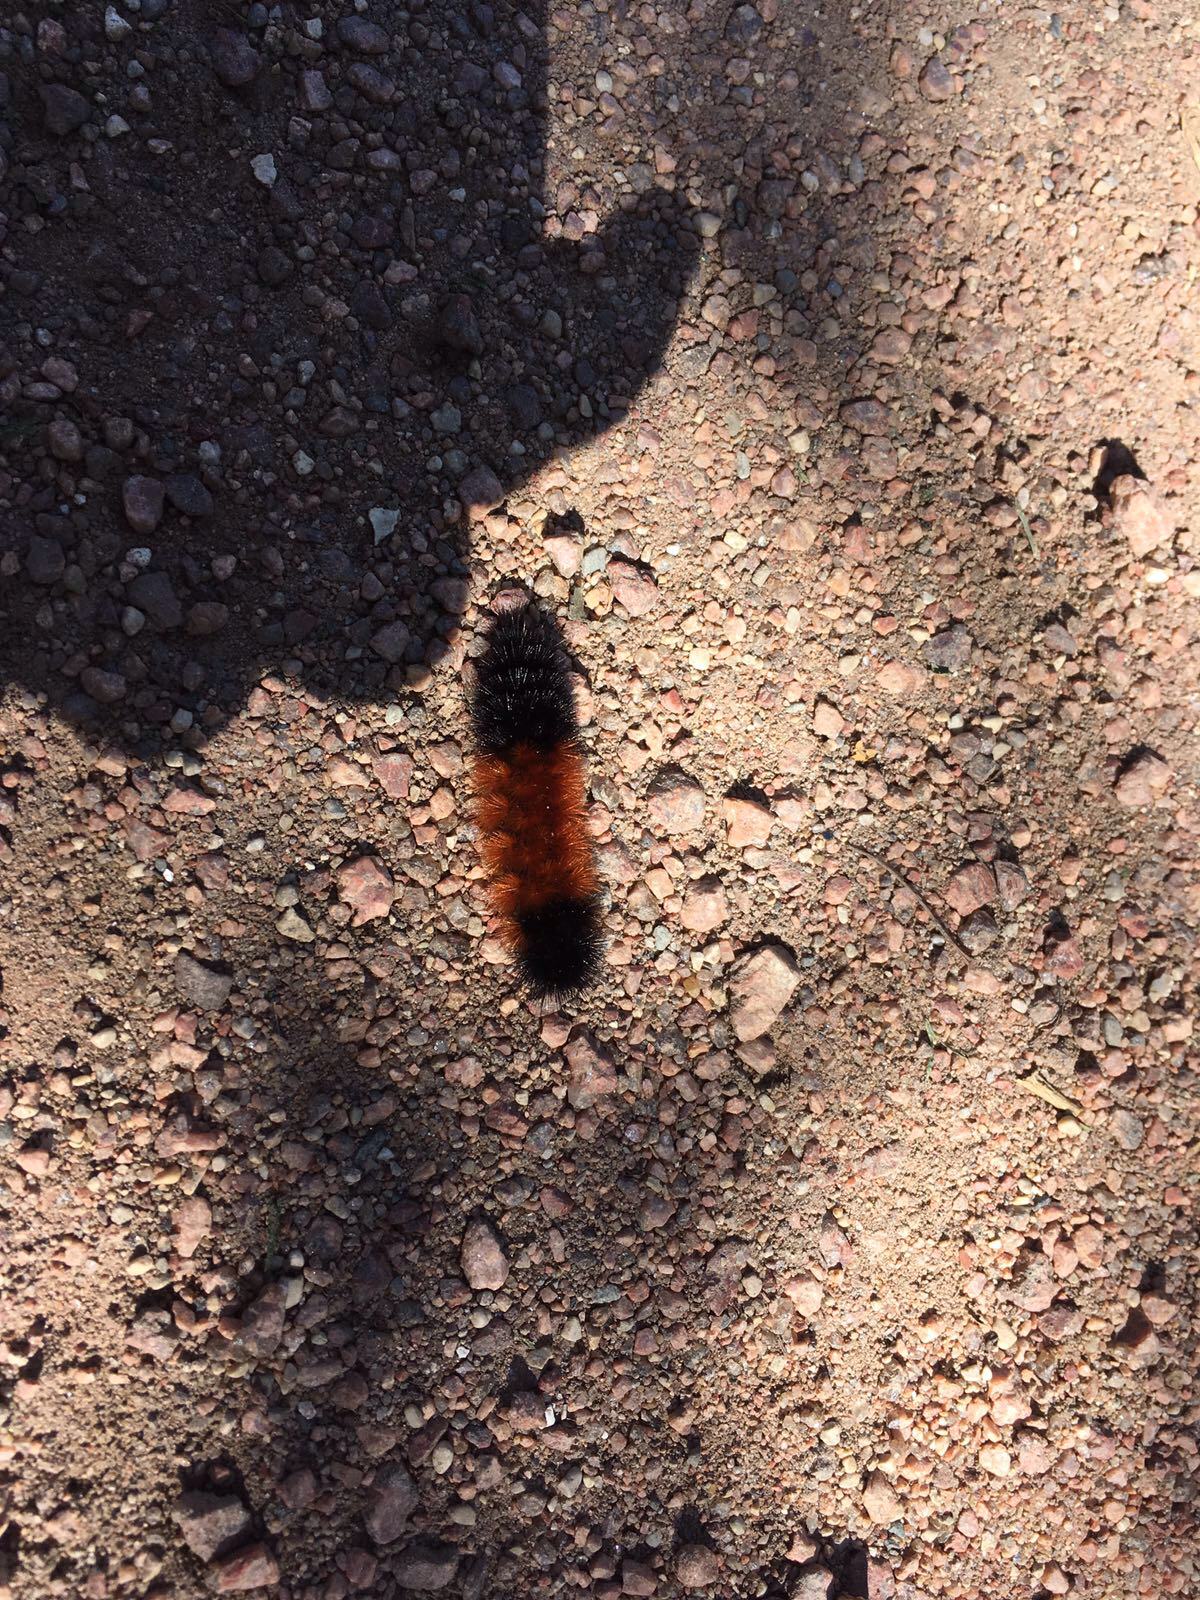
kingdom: Animalia
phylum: Arthropoda
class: Insecta
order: Lepidoptera
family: Erebidae
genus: Pyrrharctia
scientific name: Pyrrharctia isabella
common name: Isabella tiger moth
